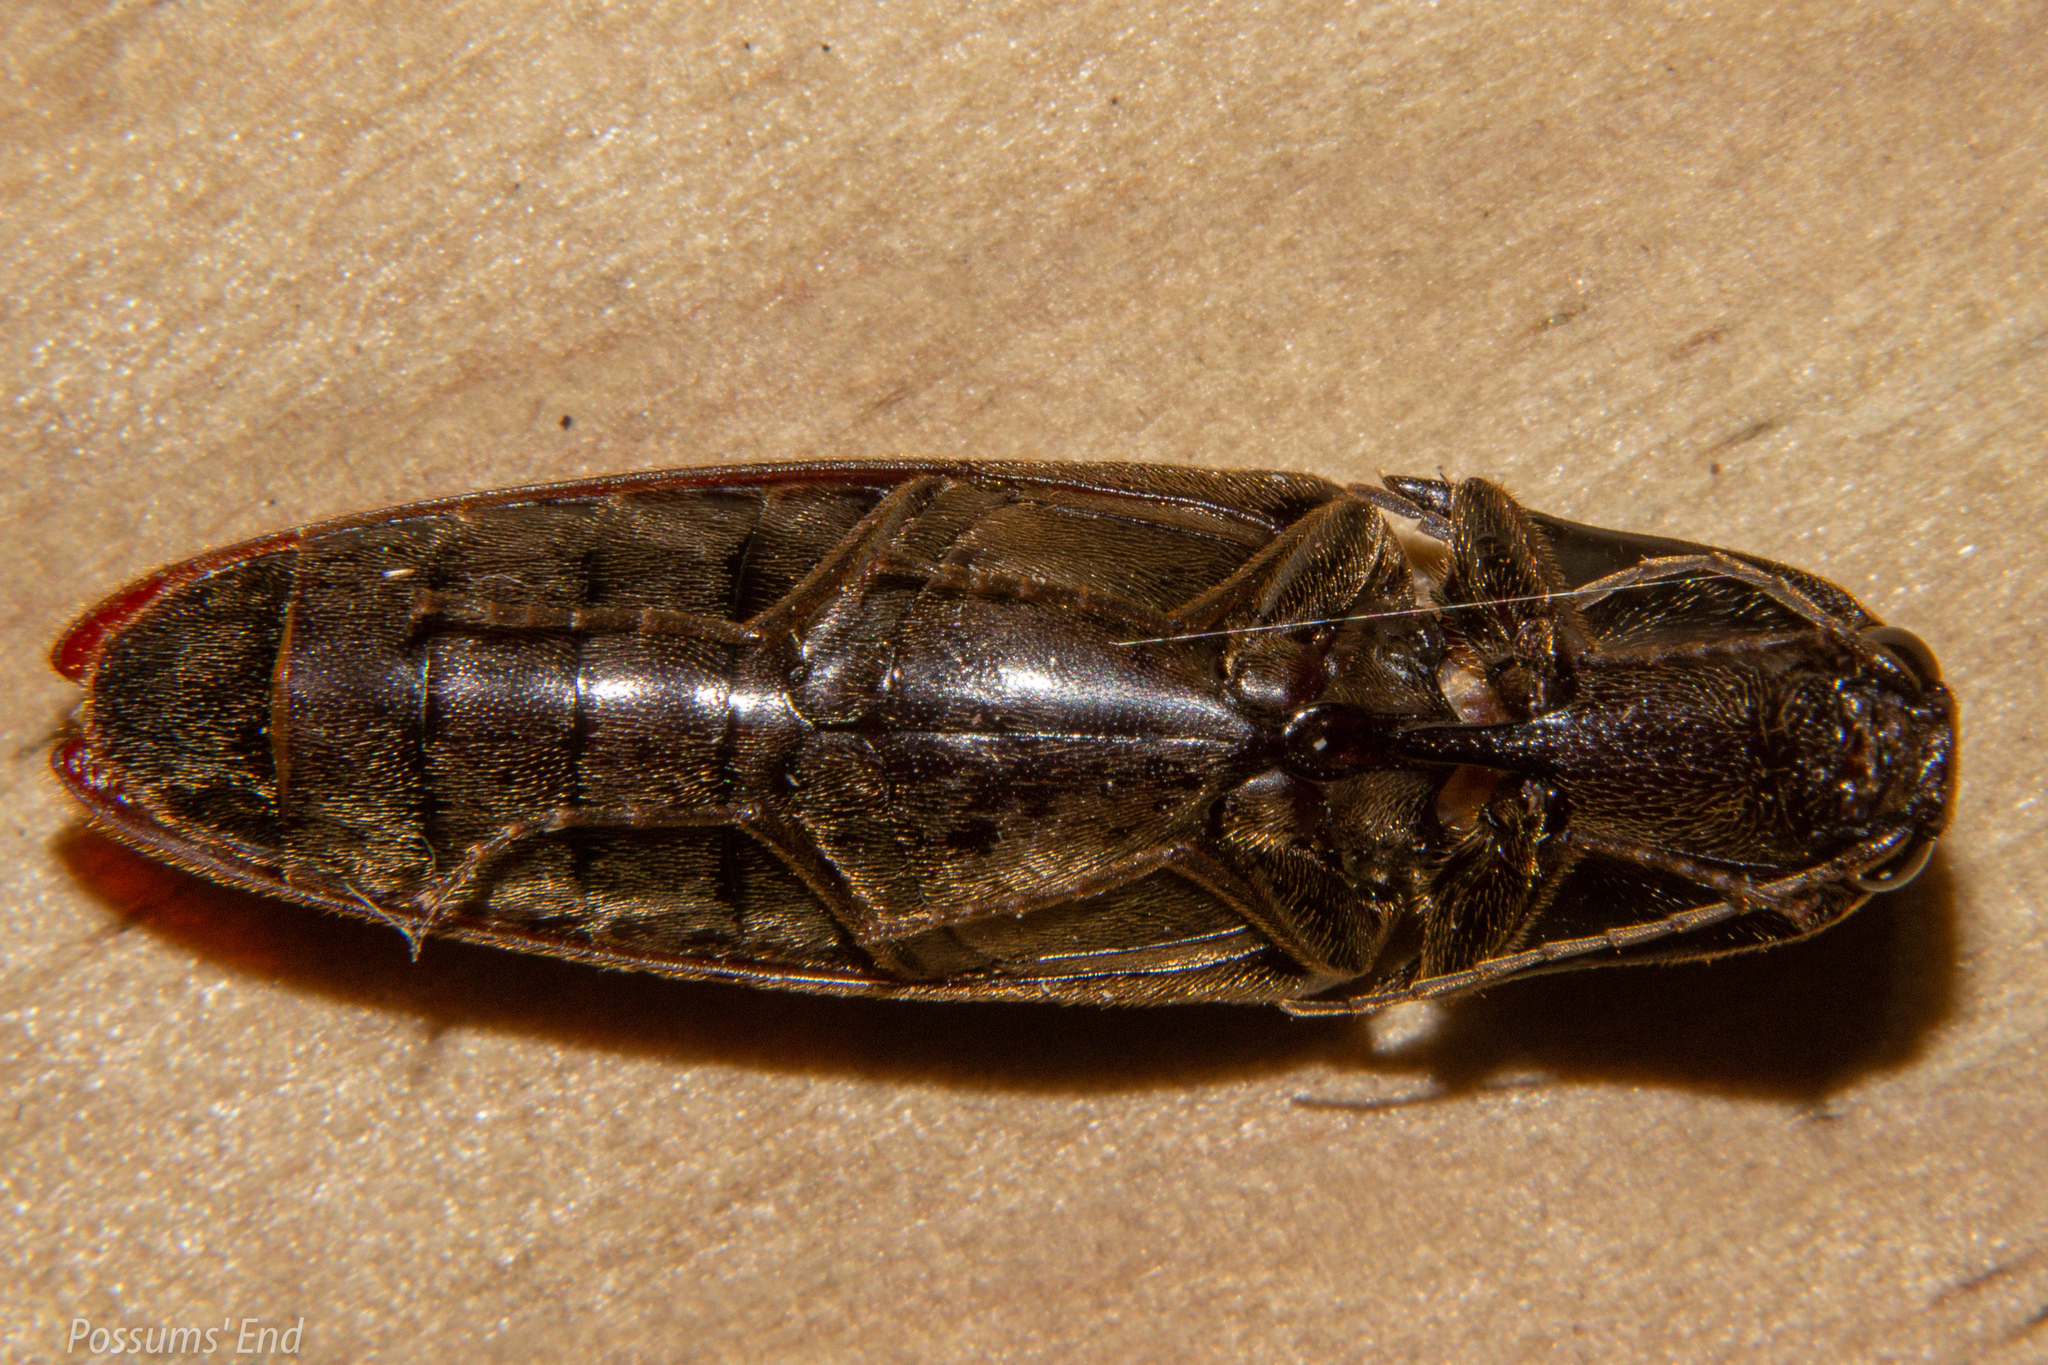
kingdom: Animalia
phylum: Arthropoda
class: Insecta
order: Coleoptera
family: Elateridae
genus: Thoramus
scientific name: Thoramus
